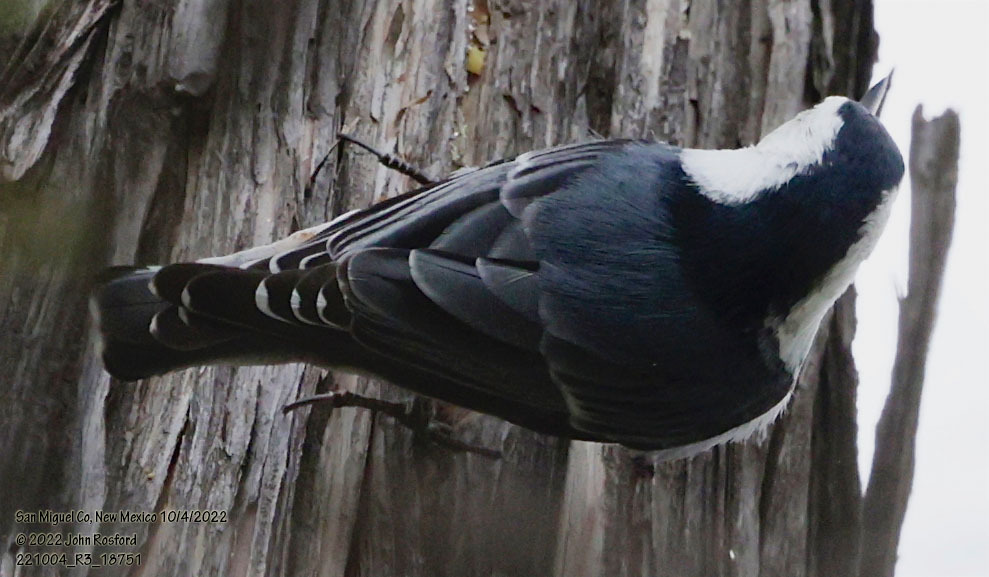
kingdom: Animalia
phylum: Chordata
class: Aves
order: Passeriformes
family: Sittidae
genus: Sitta
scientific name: Sitta carolinensis
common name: White-breasted nuthatch
